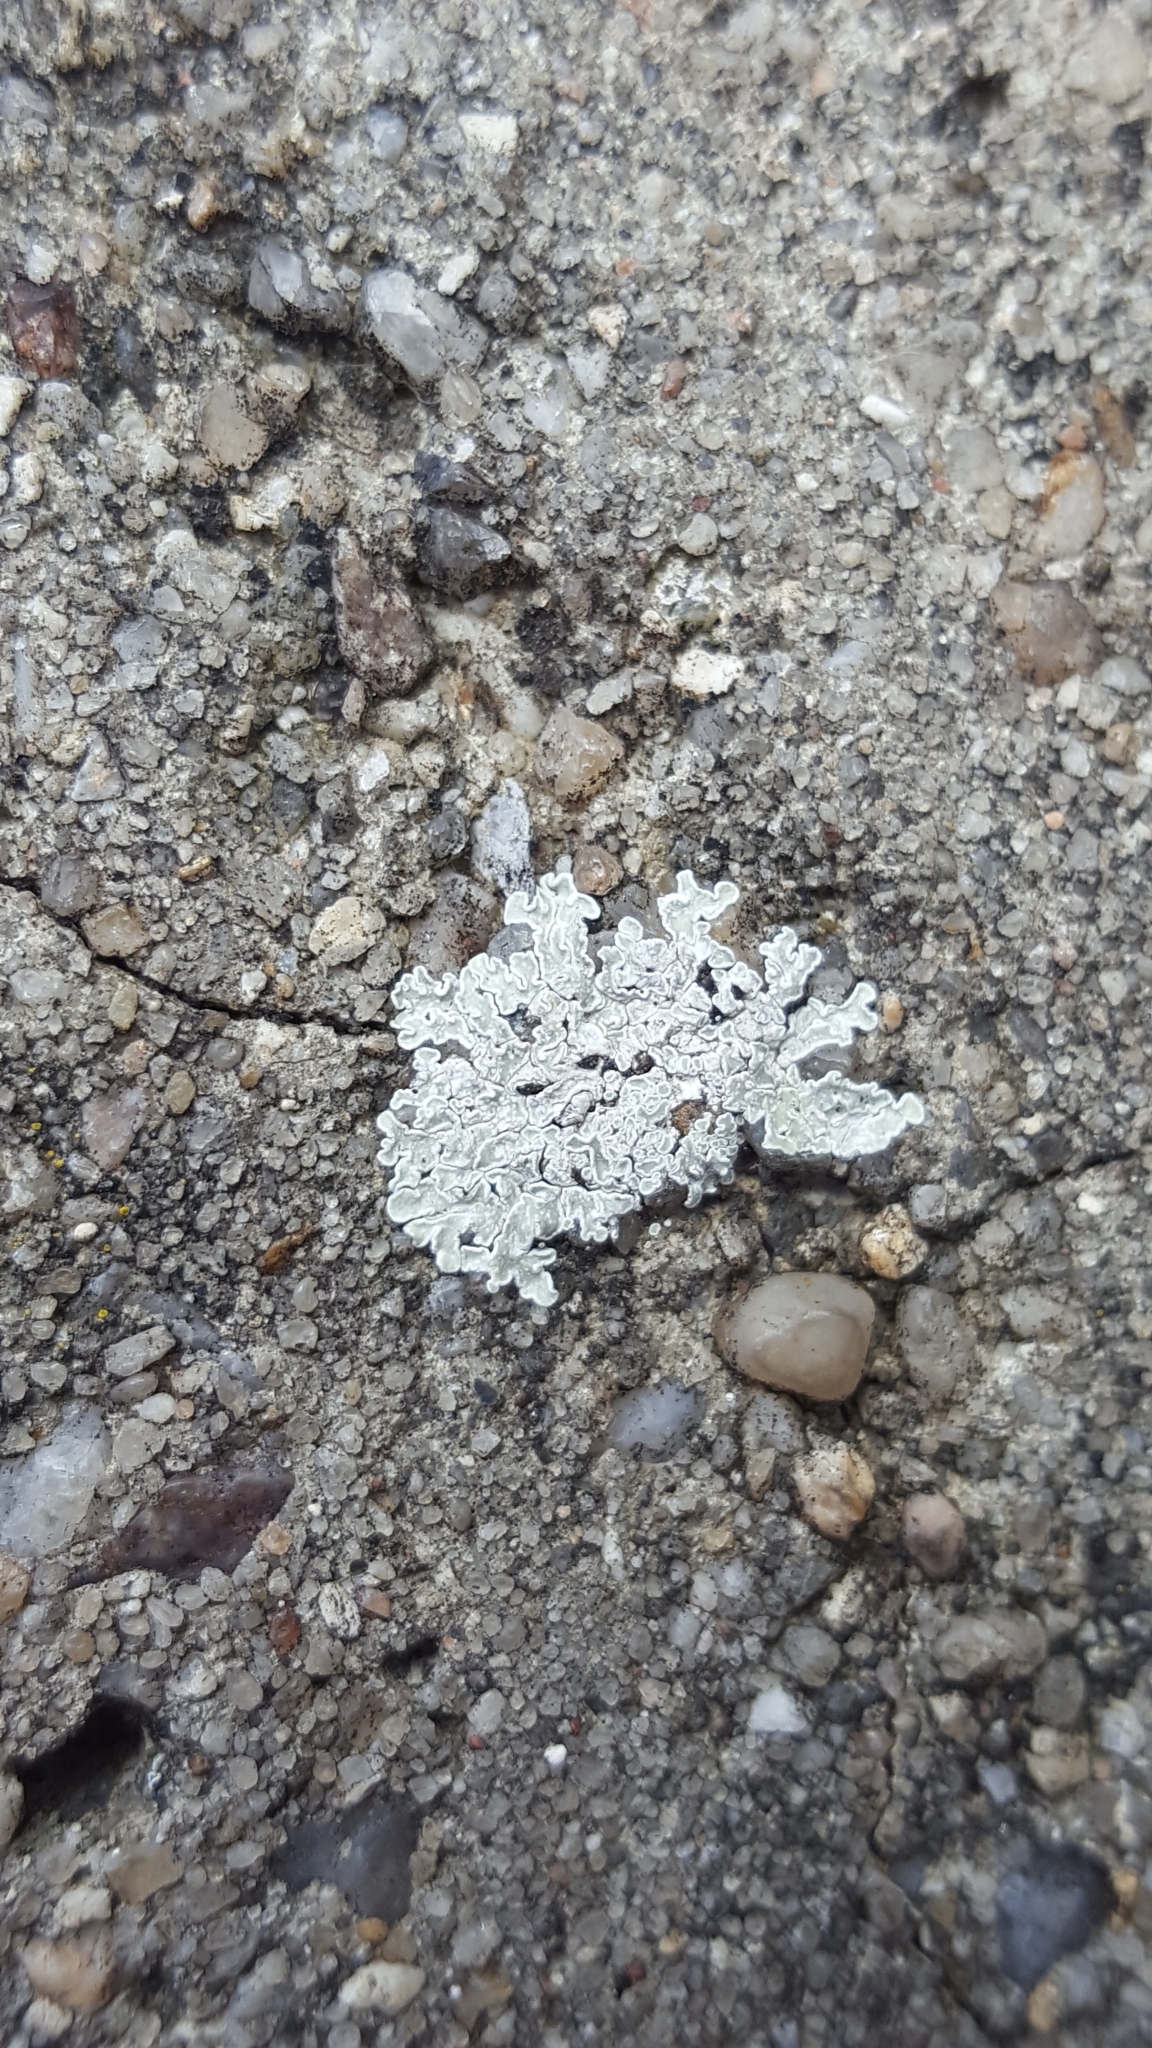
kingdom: Fungi
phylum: Ascomycota
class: Lecanoromycetes
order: Lecanorales
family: Lecanoraceae
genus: Protoparmeliopsis
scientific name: Protoparmeliopsis muralis
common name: Stonewall rim lichen
